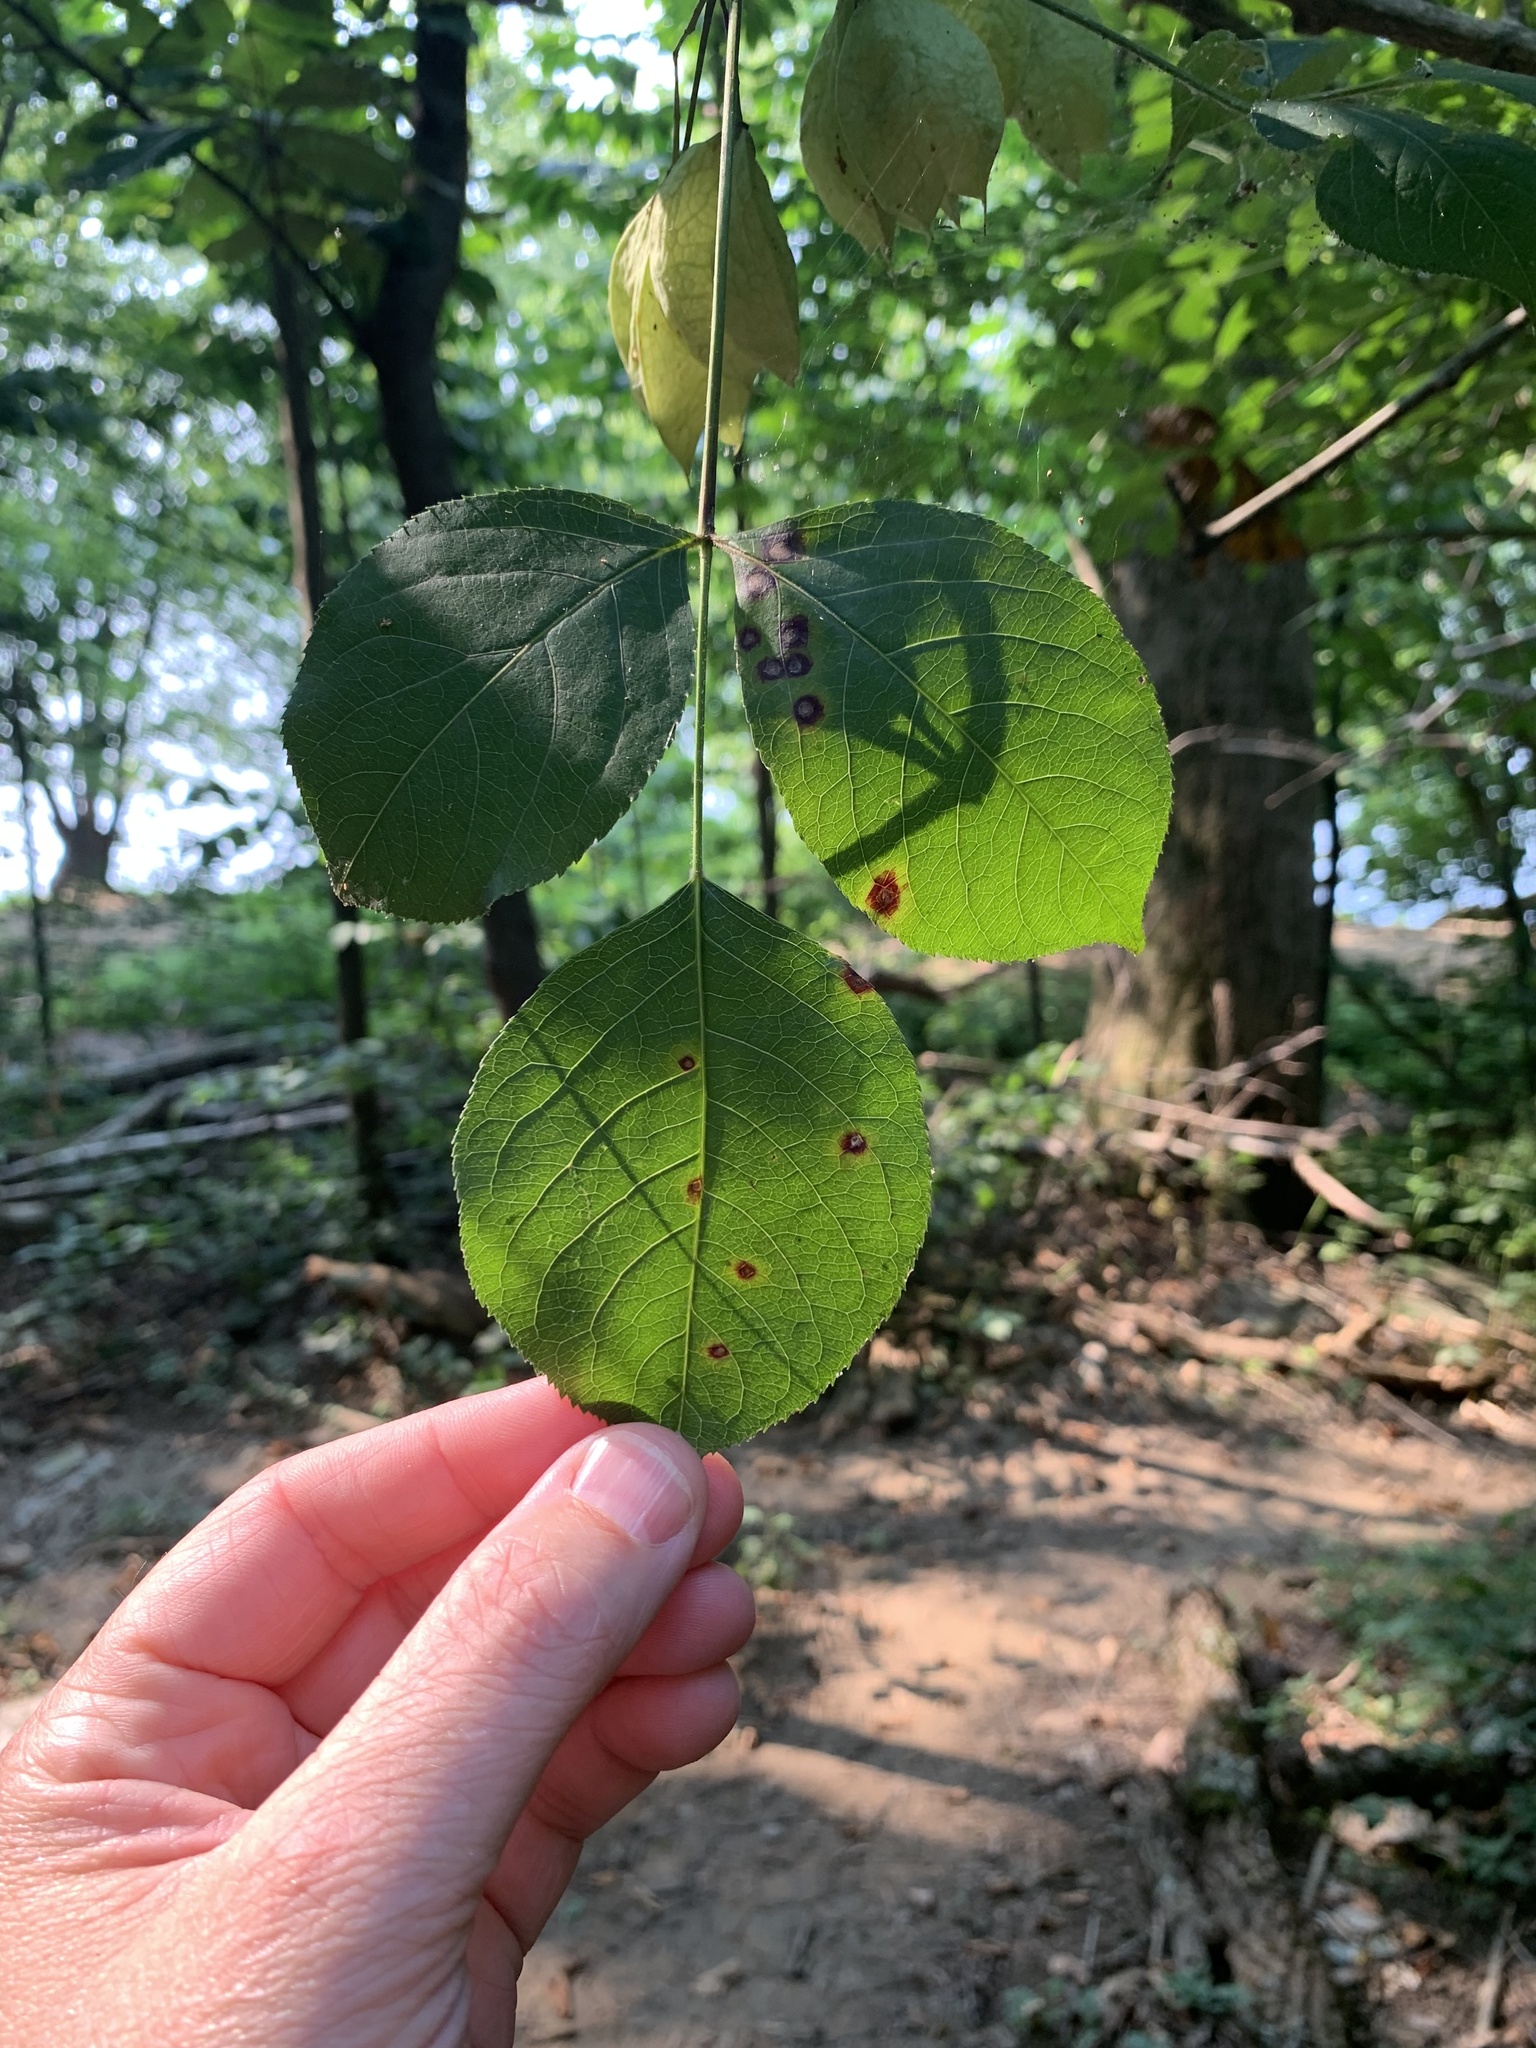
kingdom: Plantae
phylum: Tracheophyta
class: Magnoliopsida
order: Crossosomatales
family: Staphyleaceae
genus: Staphylea
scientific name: Staphylea trifolia
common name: American bladdernut
